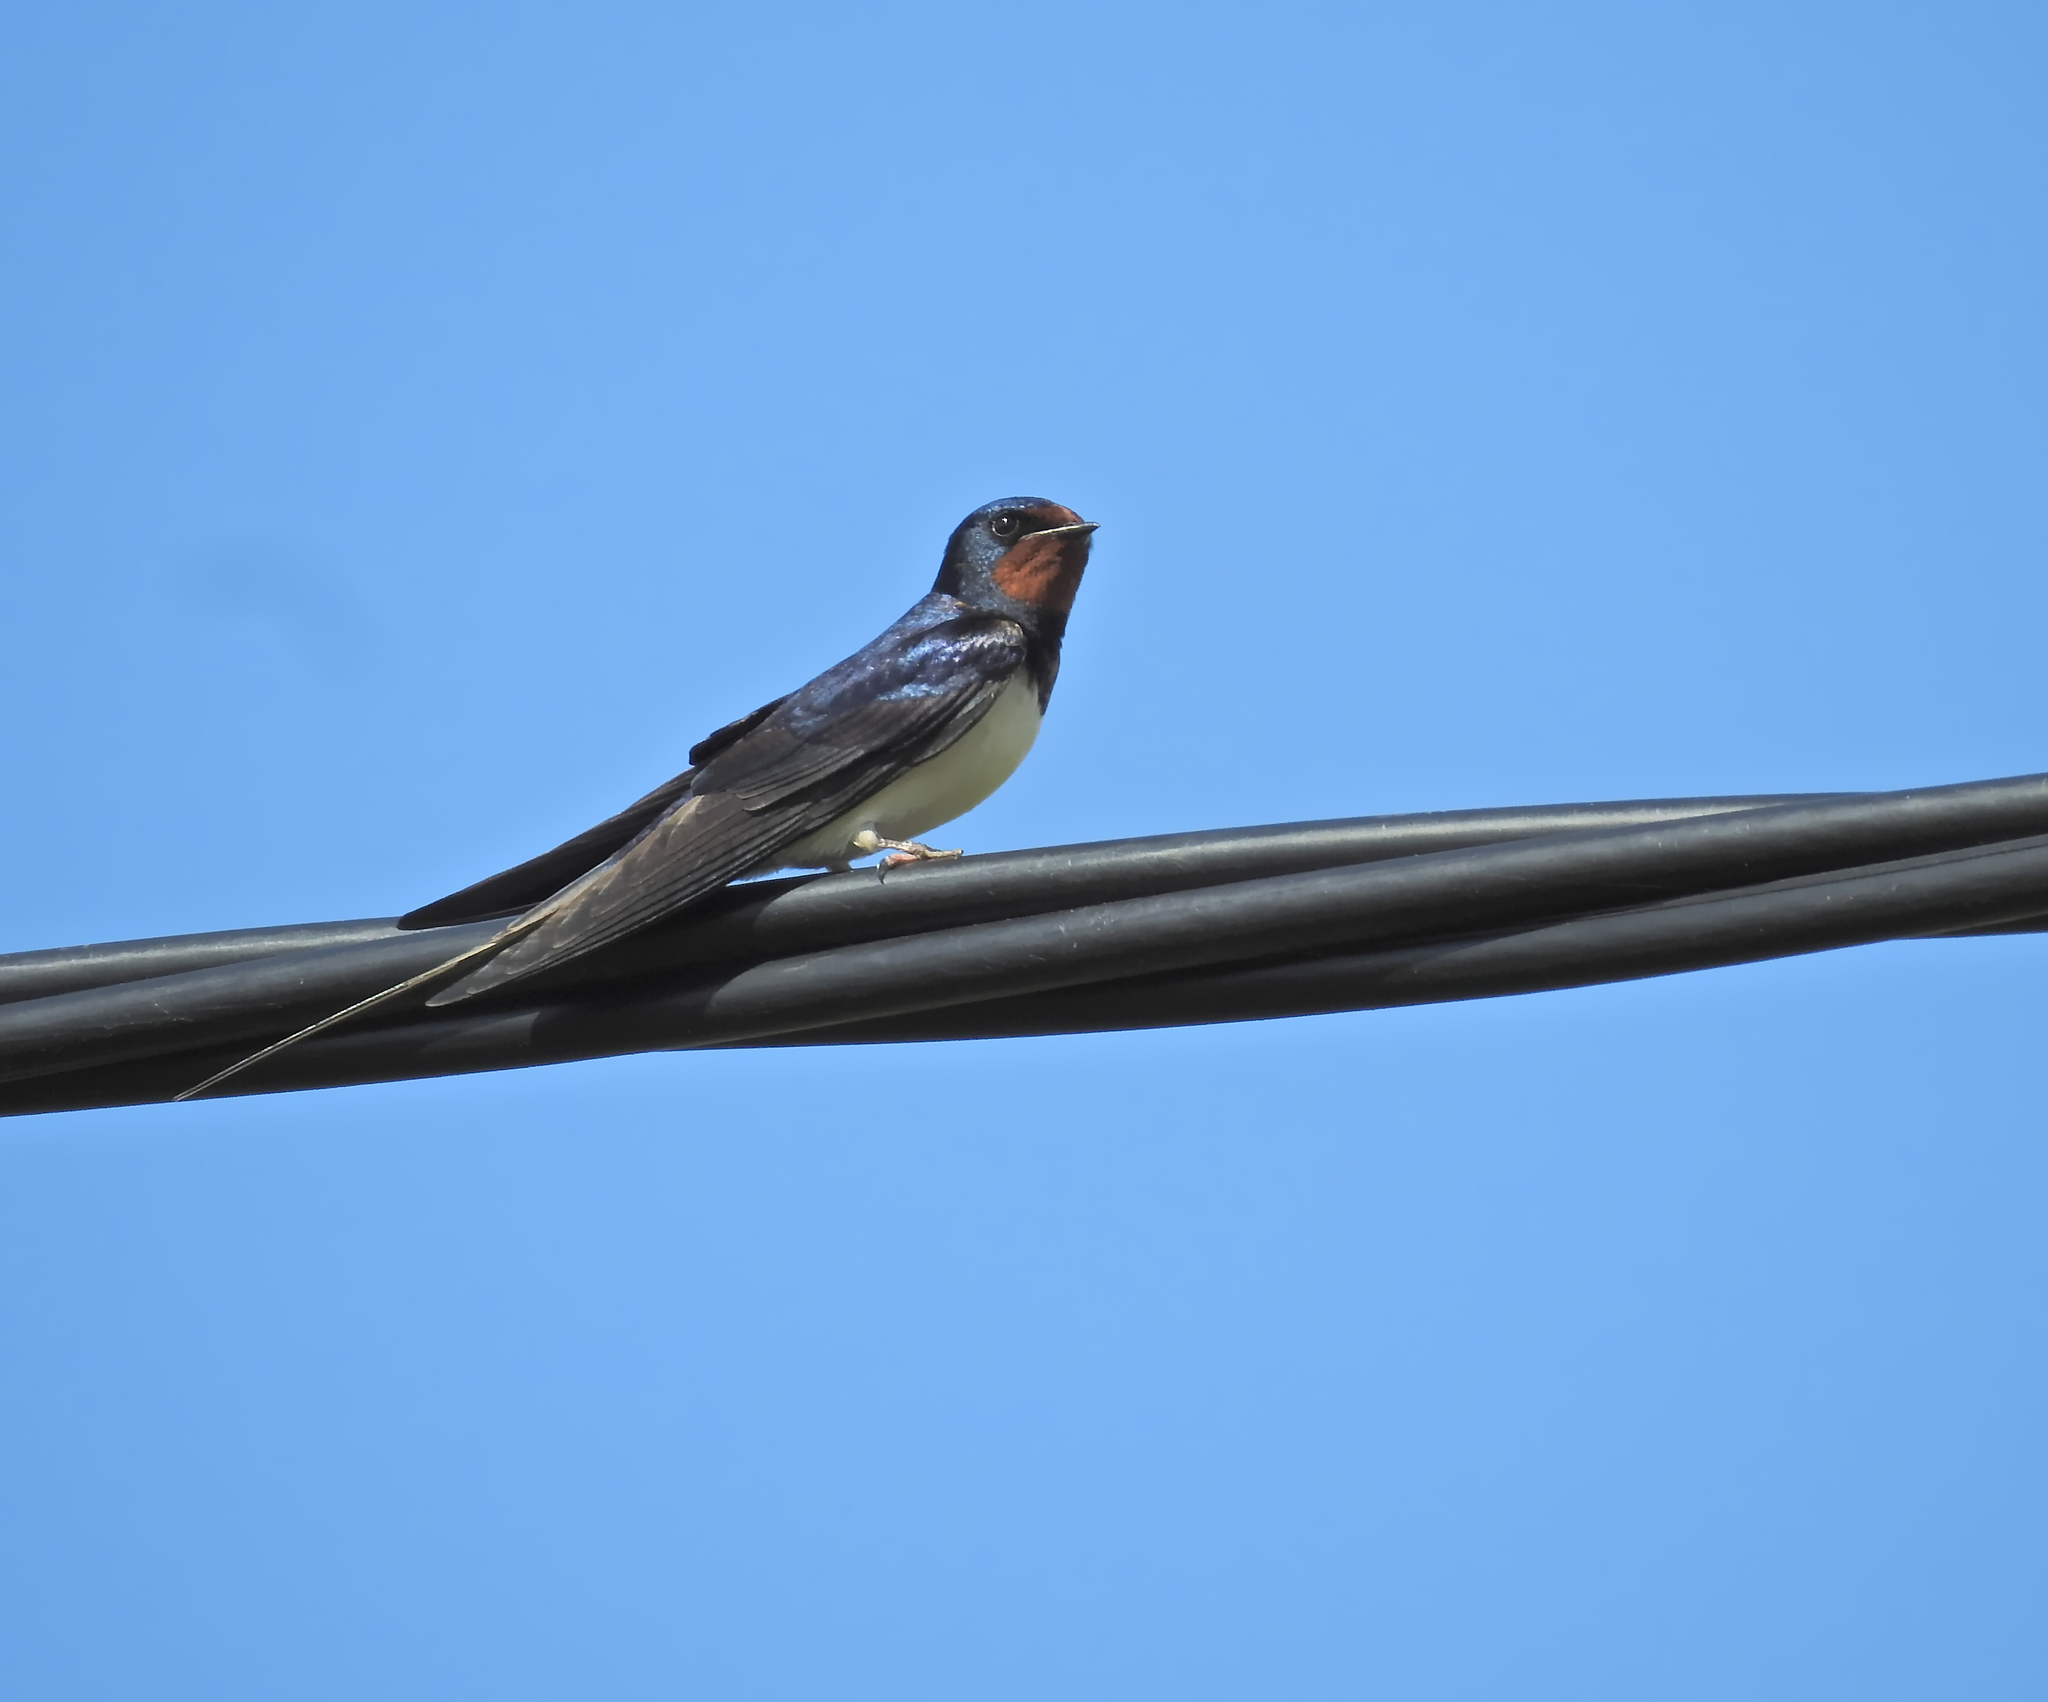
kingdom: Animalia
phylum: Chordata
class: Aves
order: Passeriformes
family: Hirundinidae
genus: Hirundo
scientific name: Hirundo rustica
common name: Barn swallow
